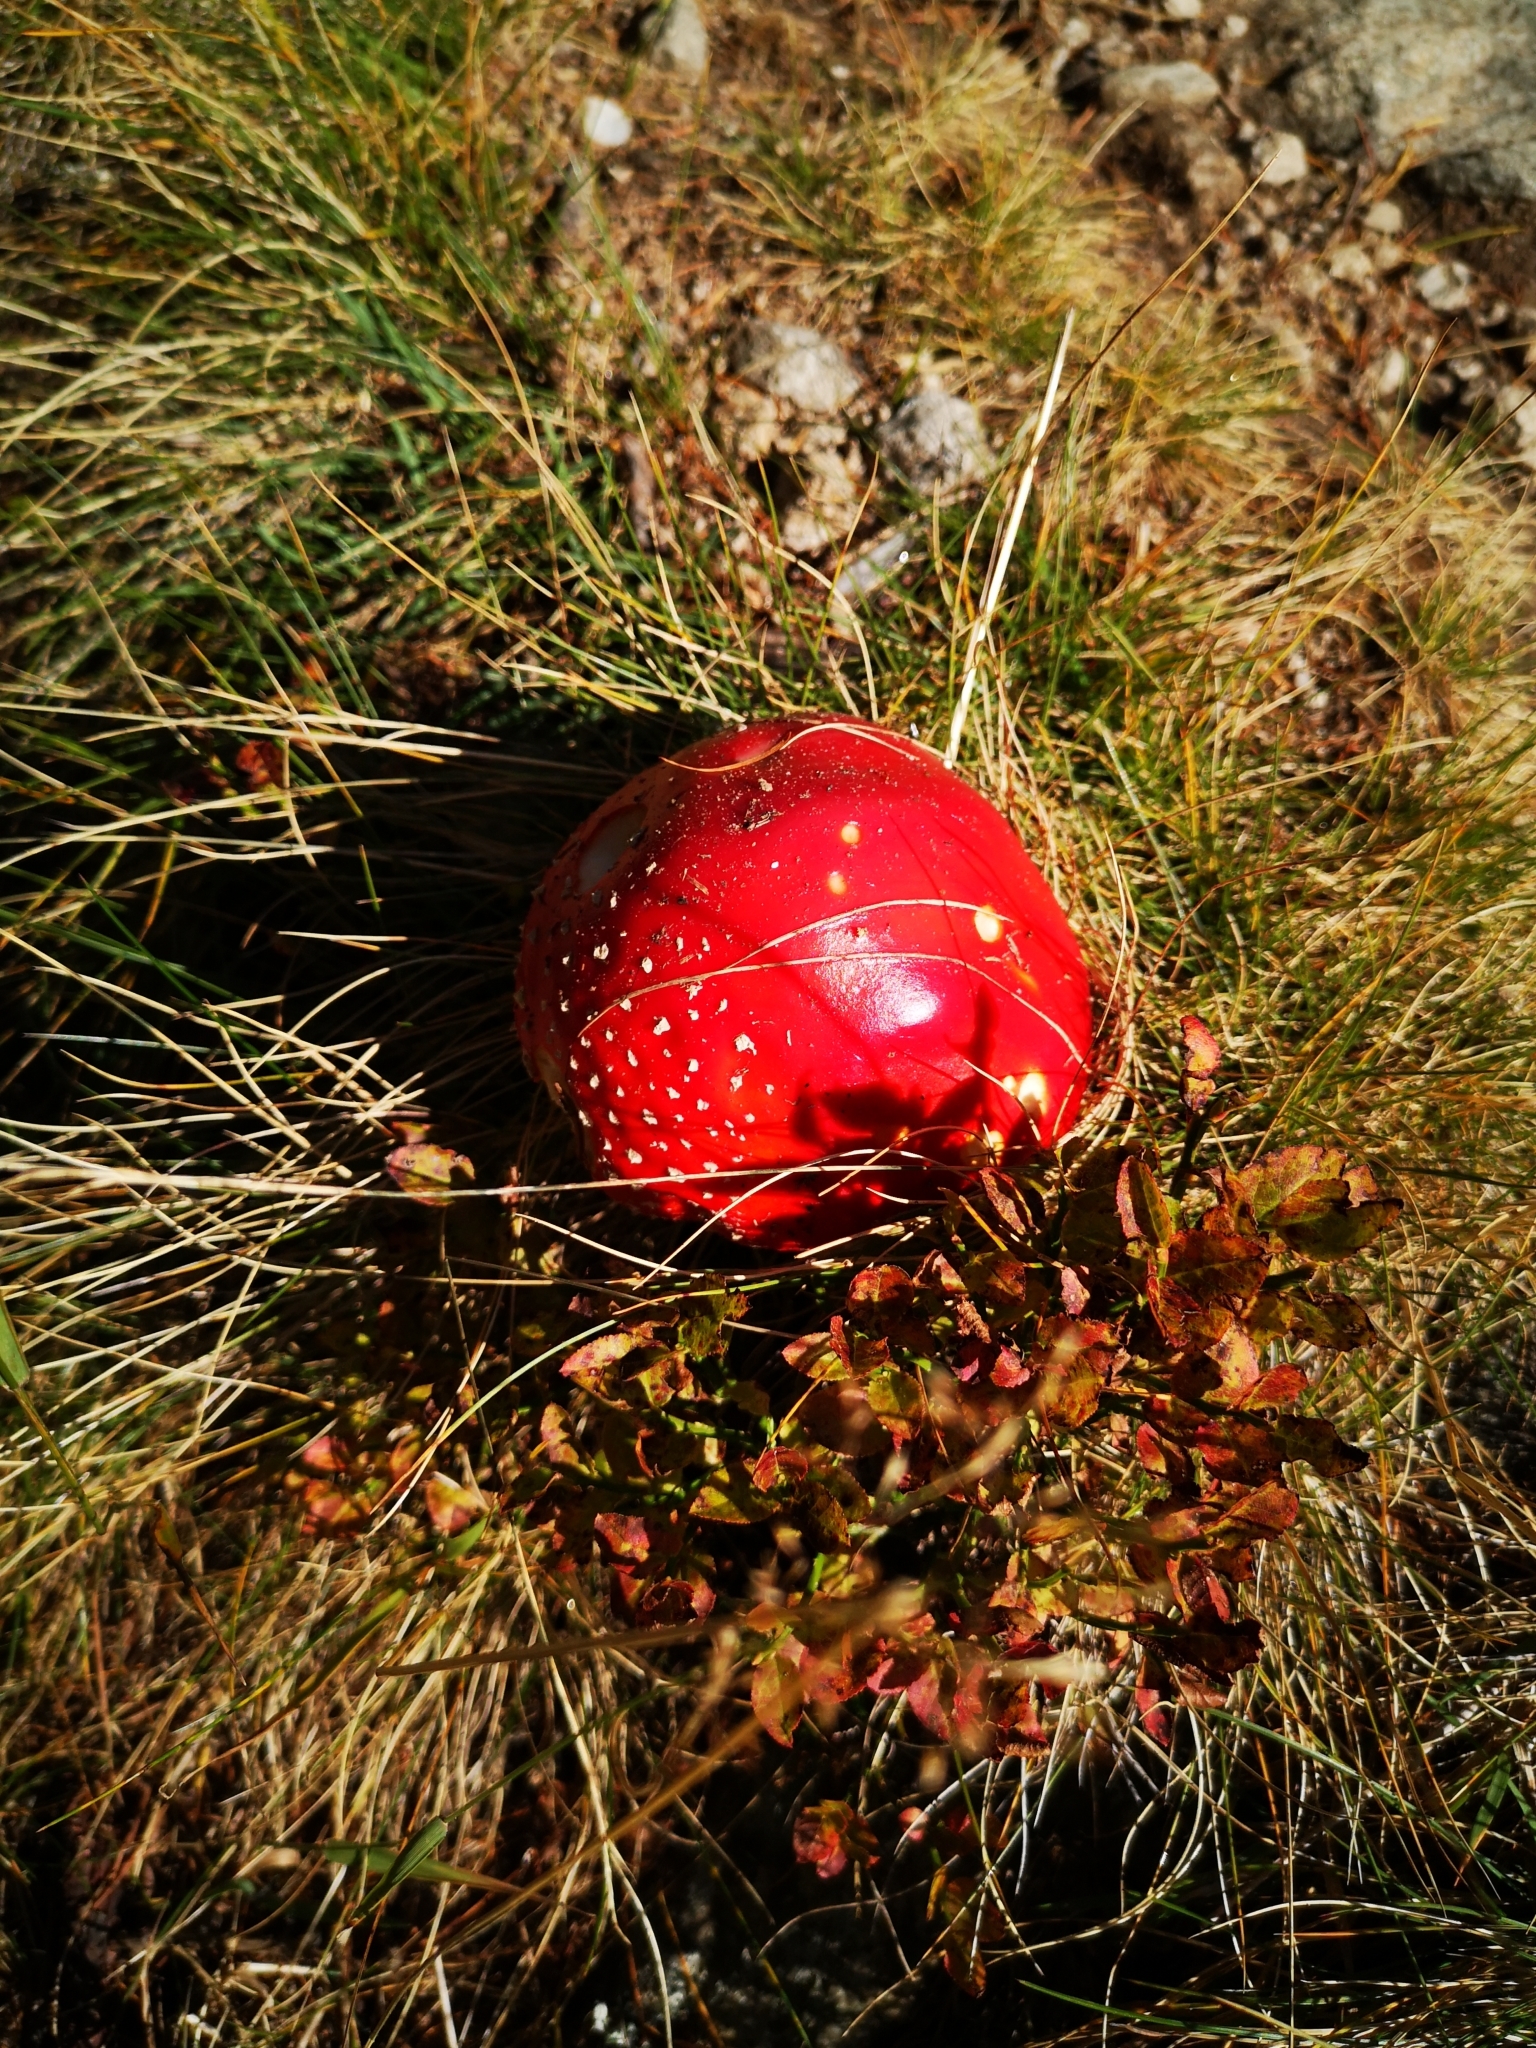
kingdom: Fungi
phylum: Basidiomycota
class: Agaricomycetes
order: Agaricales
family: Amanitaceae
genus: Amanita
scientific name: Amanita muscaria
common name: Fly agaric
